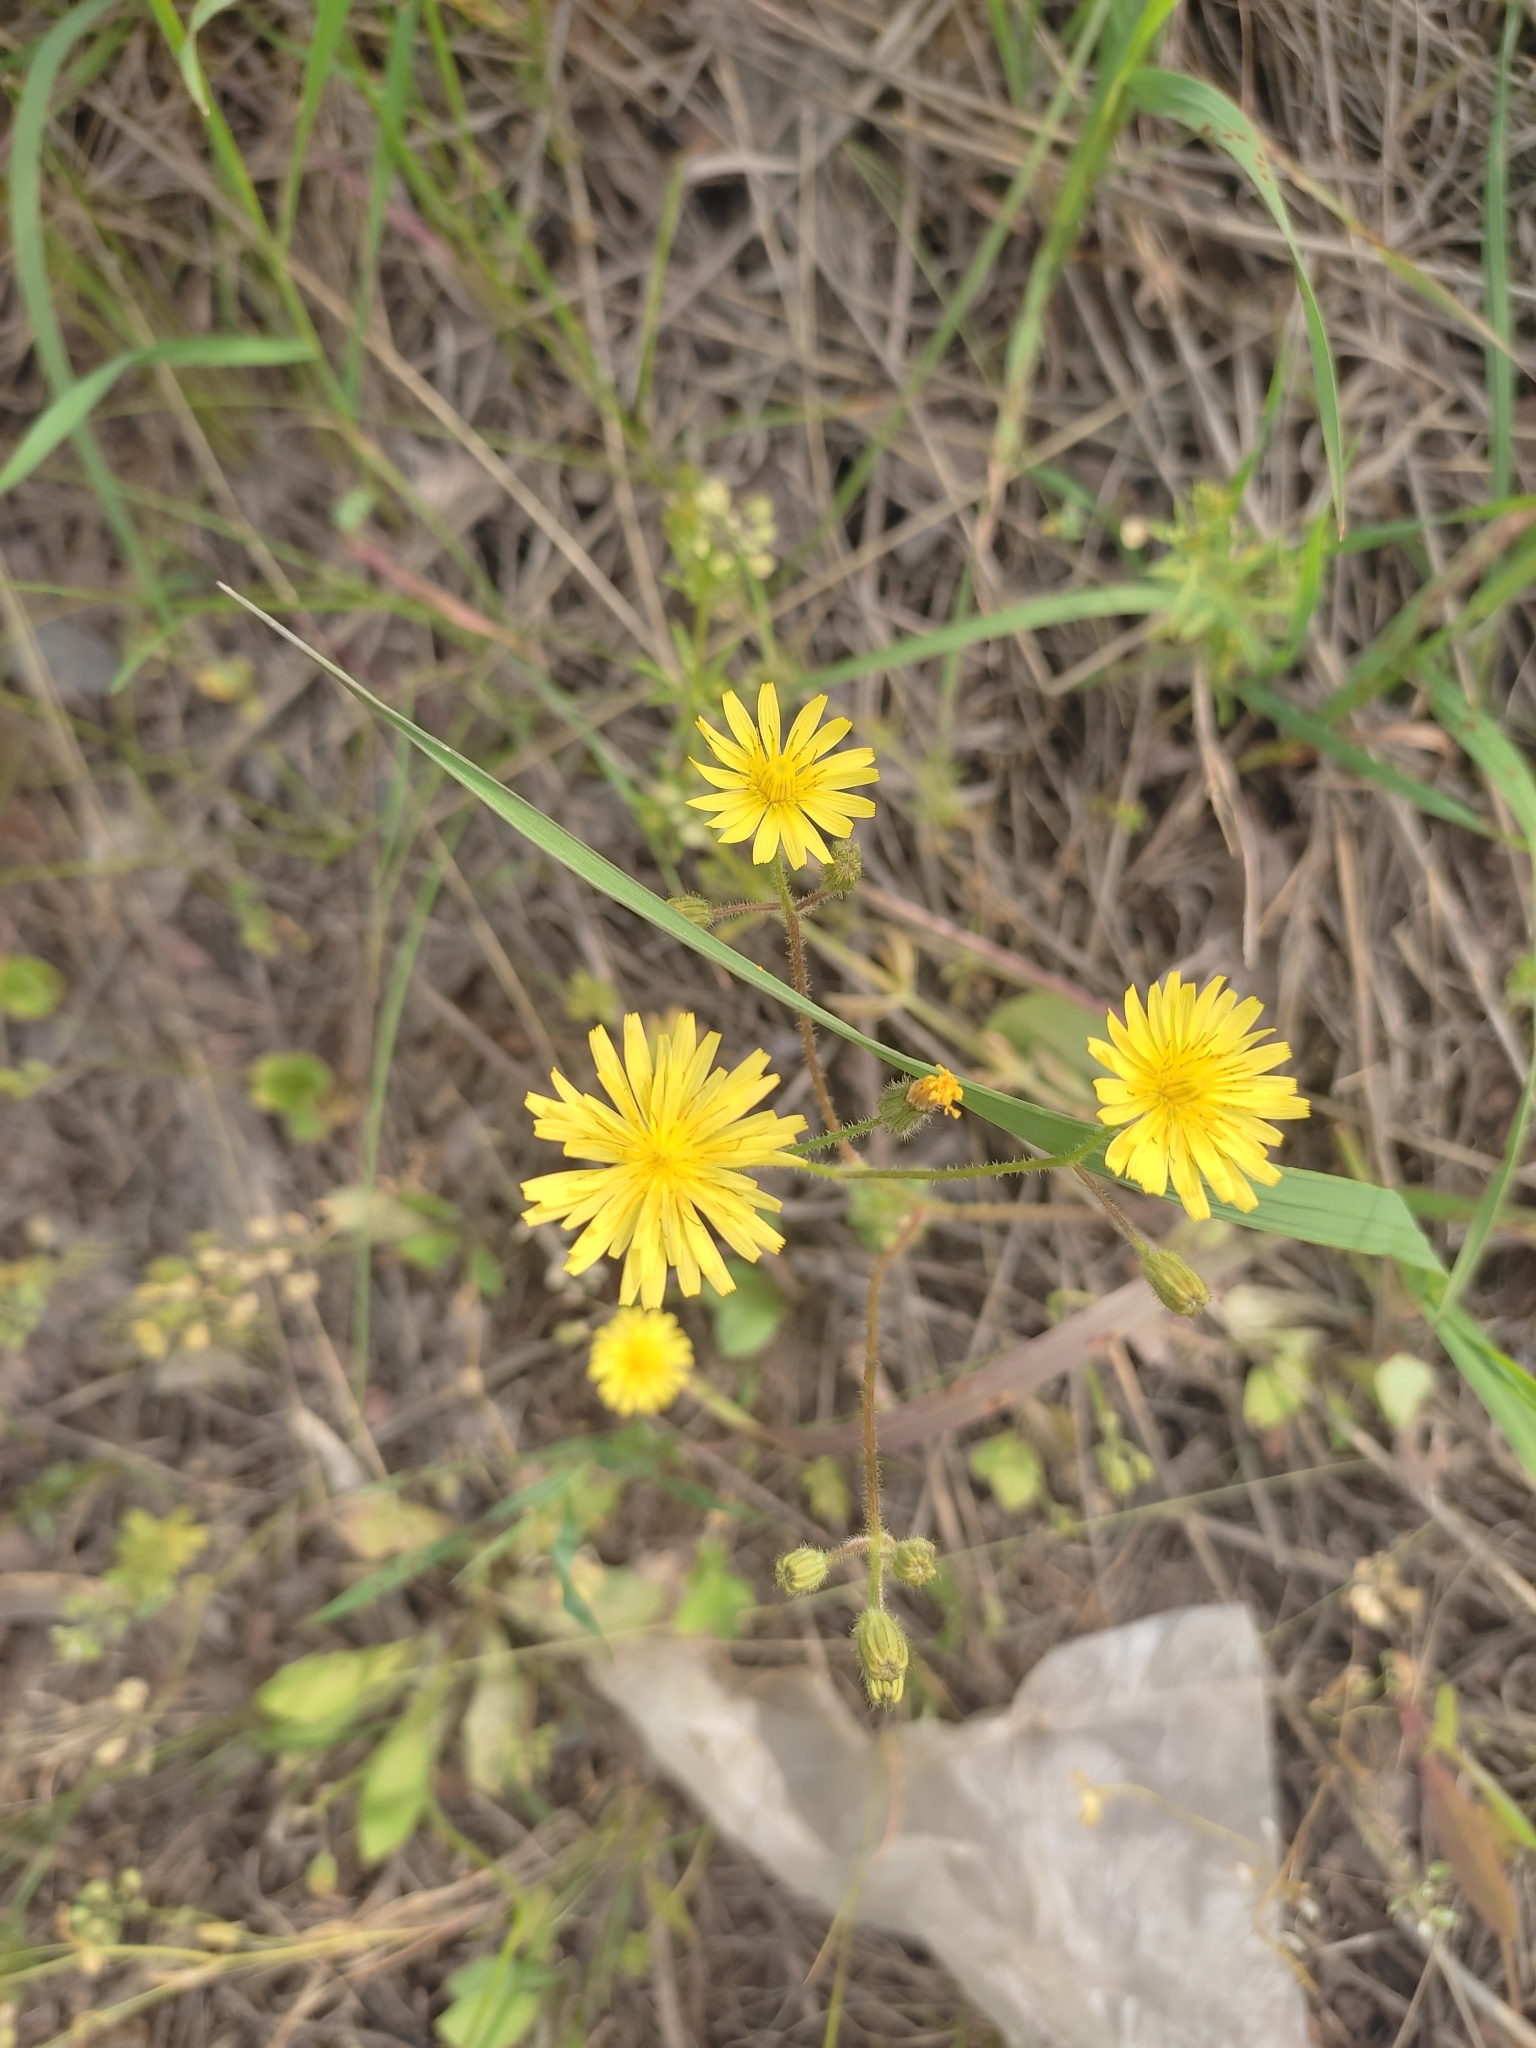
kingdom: Plantae
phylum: Tracheophyta
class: Magnoliopsida
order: Asterales
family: Asteraceae
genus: Crepis
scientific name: Crepis sancta
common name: Hawk's-beard
